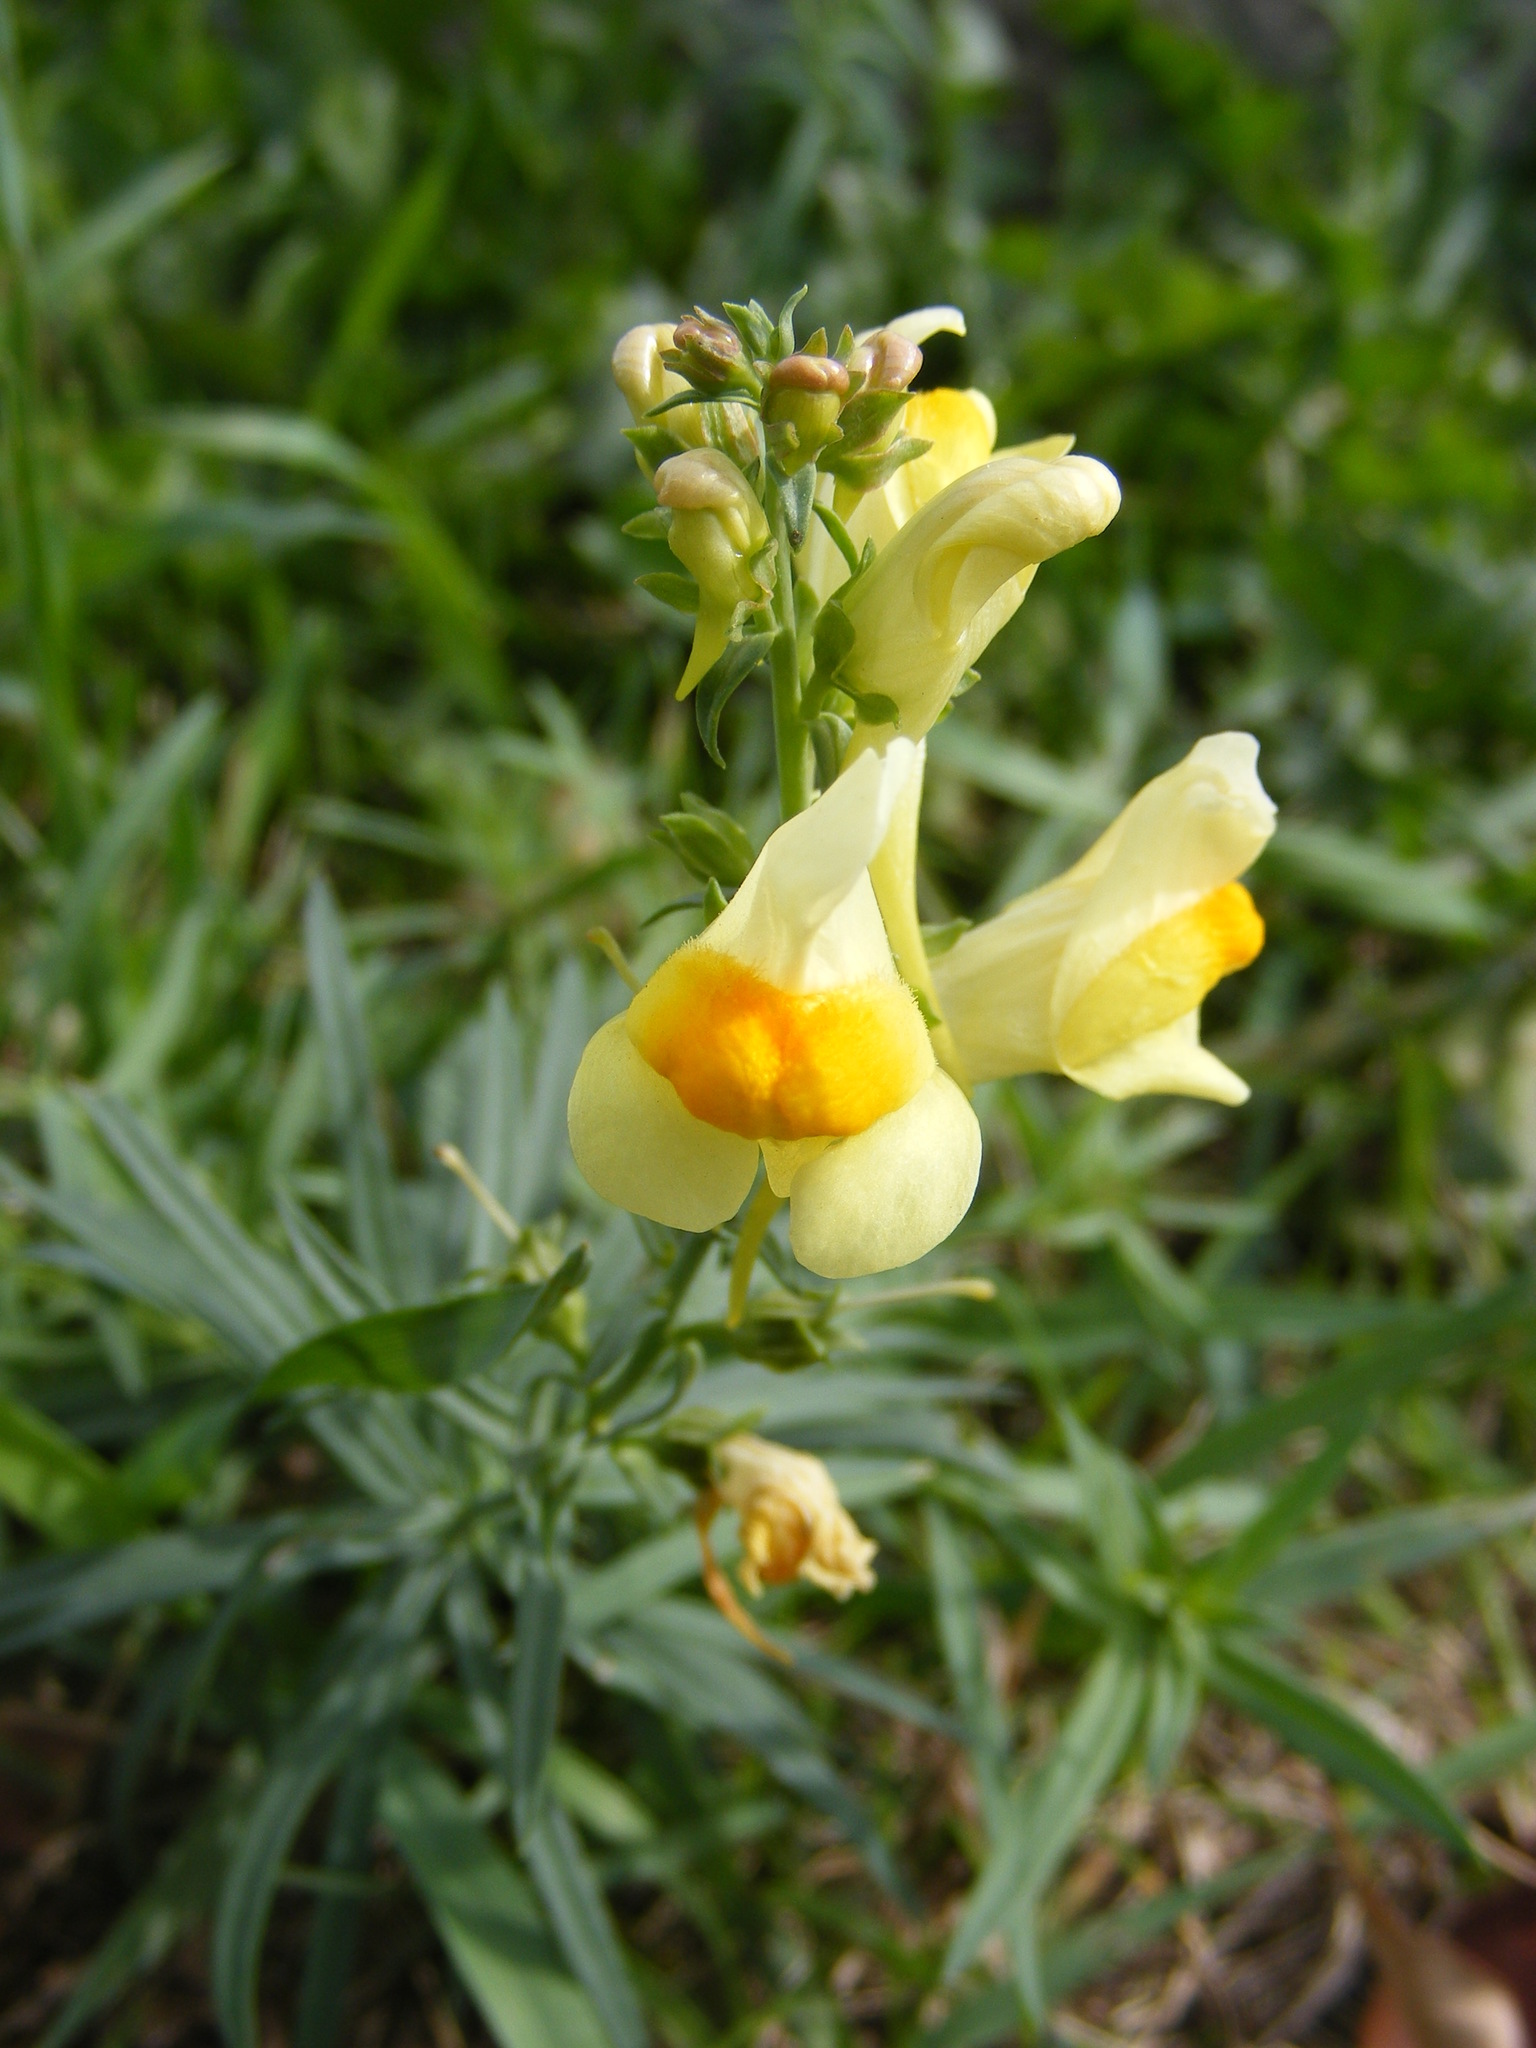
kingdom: Plantae
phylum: Tracheophyta
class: Magnoliopsida
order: Lamiales
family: Plantaginaceae
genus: Linaria
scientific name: Linaria vulgaris
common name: Butter and eggs
